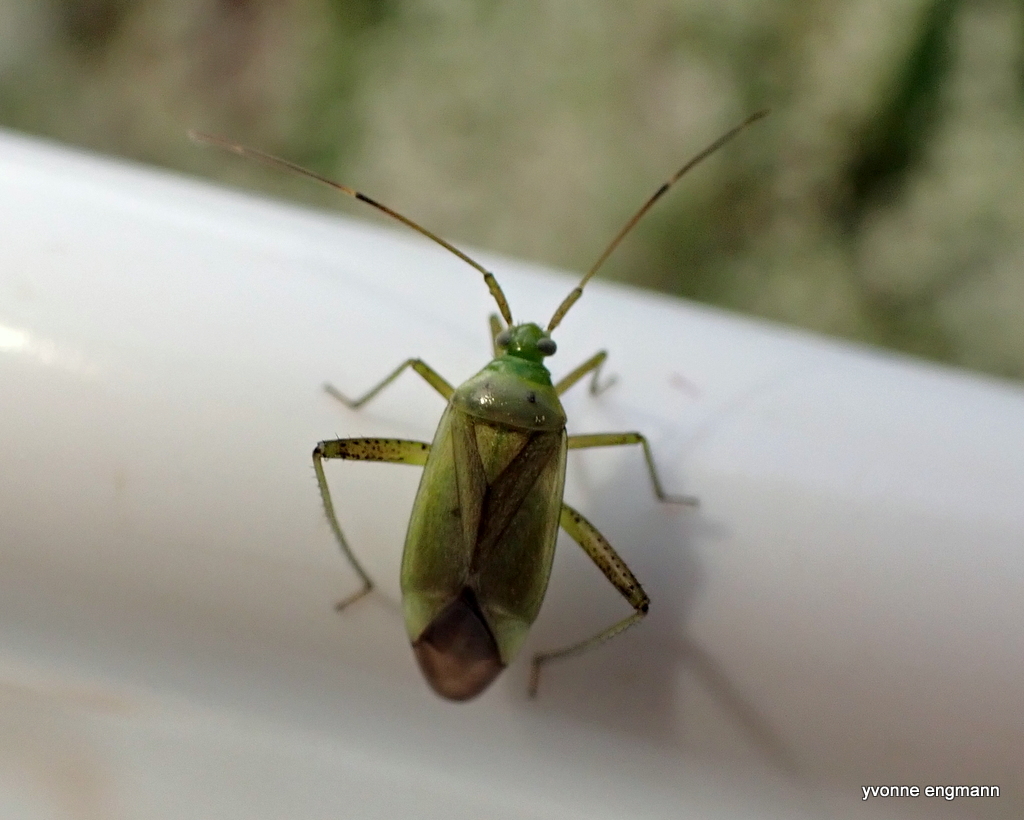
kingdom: Animalia
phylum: Arthropoda
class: Insecta
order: Hemiptera
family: Miridae
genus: Adelphocoris
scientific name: Adelphocoris quadripunctatus
